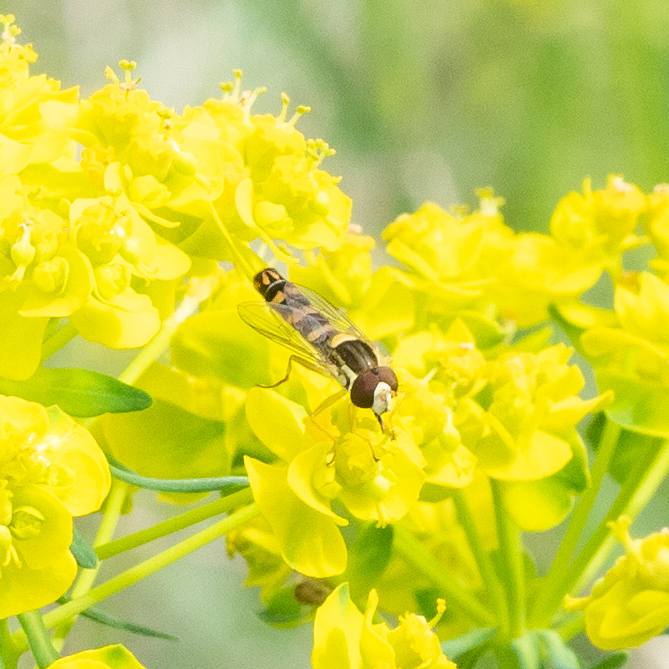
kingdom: Animalia
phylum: Arthropoda
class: Insecta
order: Diptera
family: Syrphidae
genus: Sphaerophoria
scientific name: Sphaerophoria scripta
